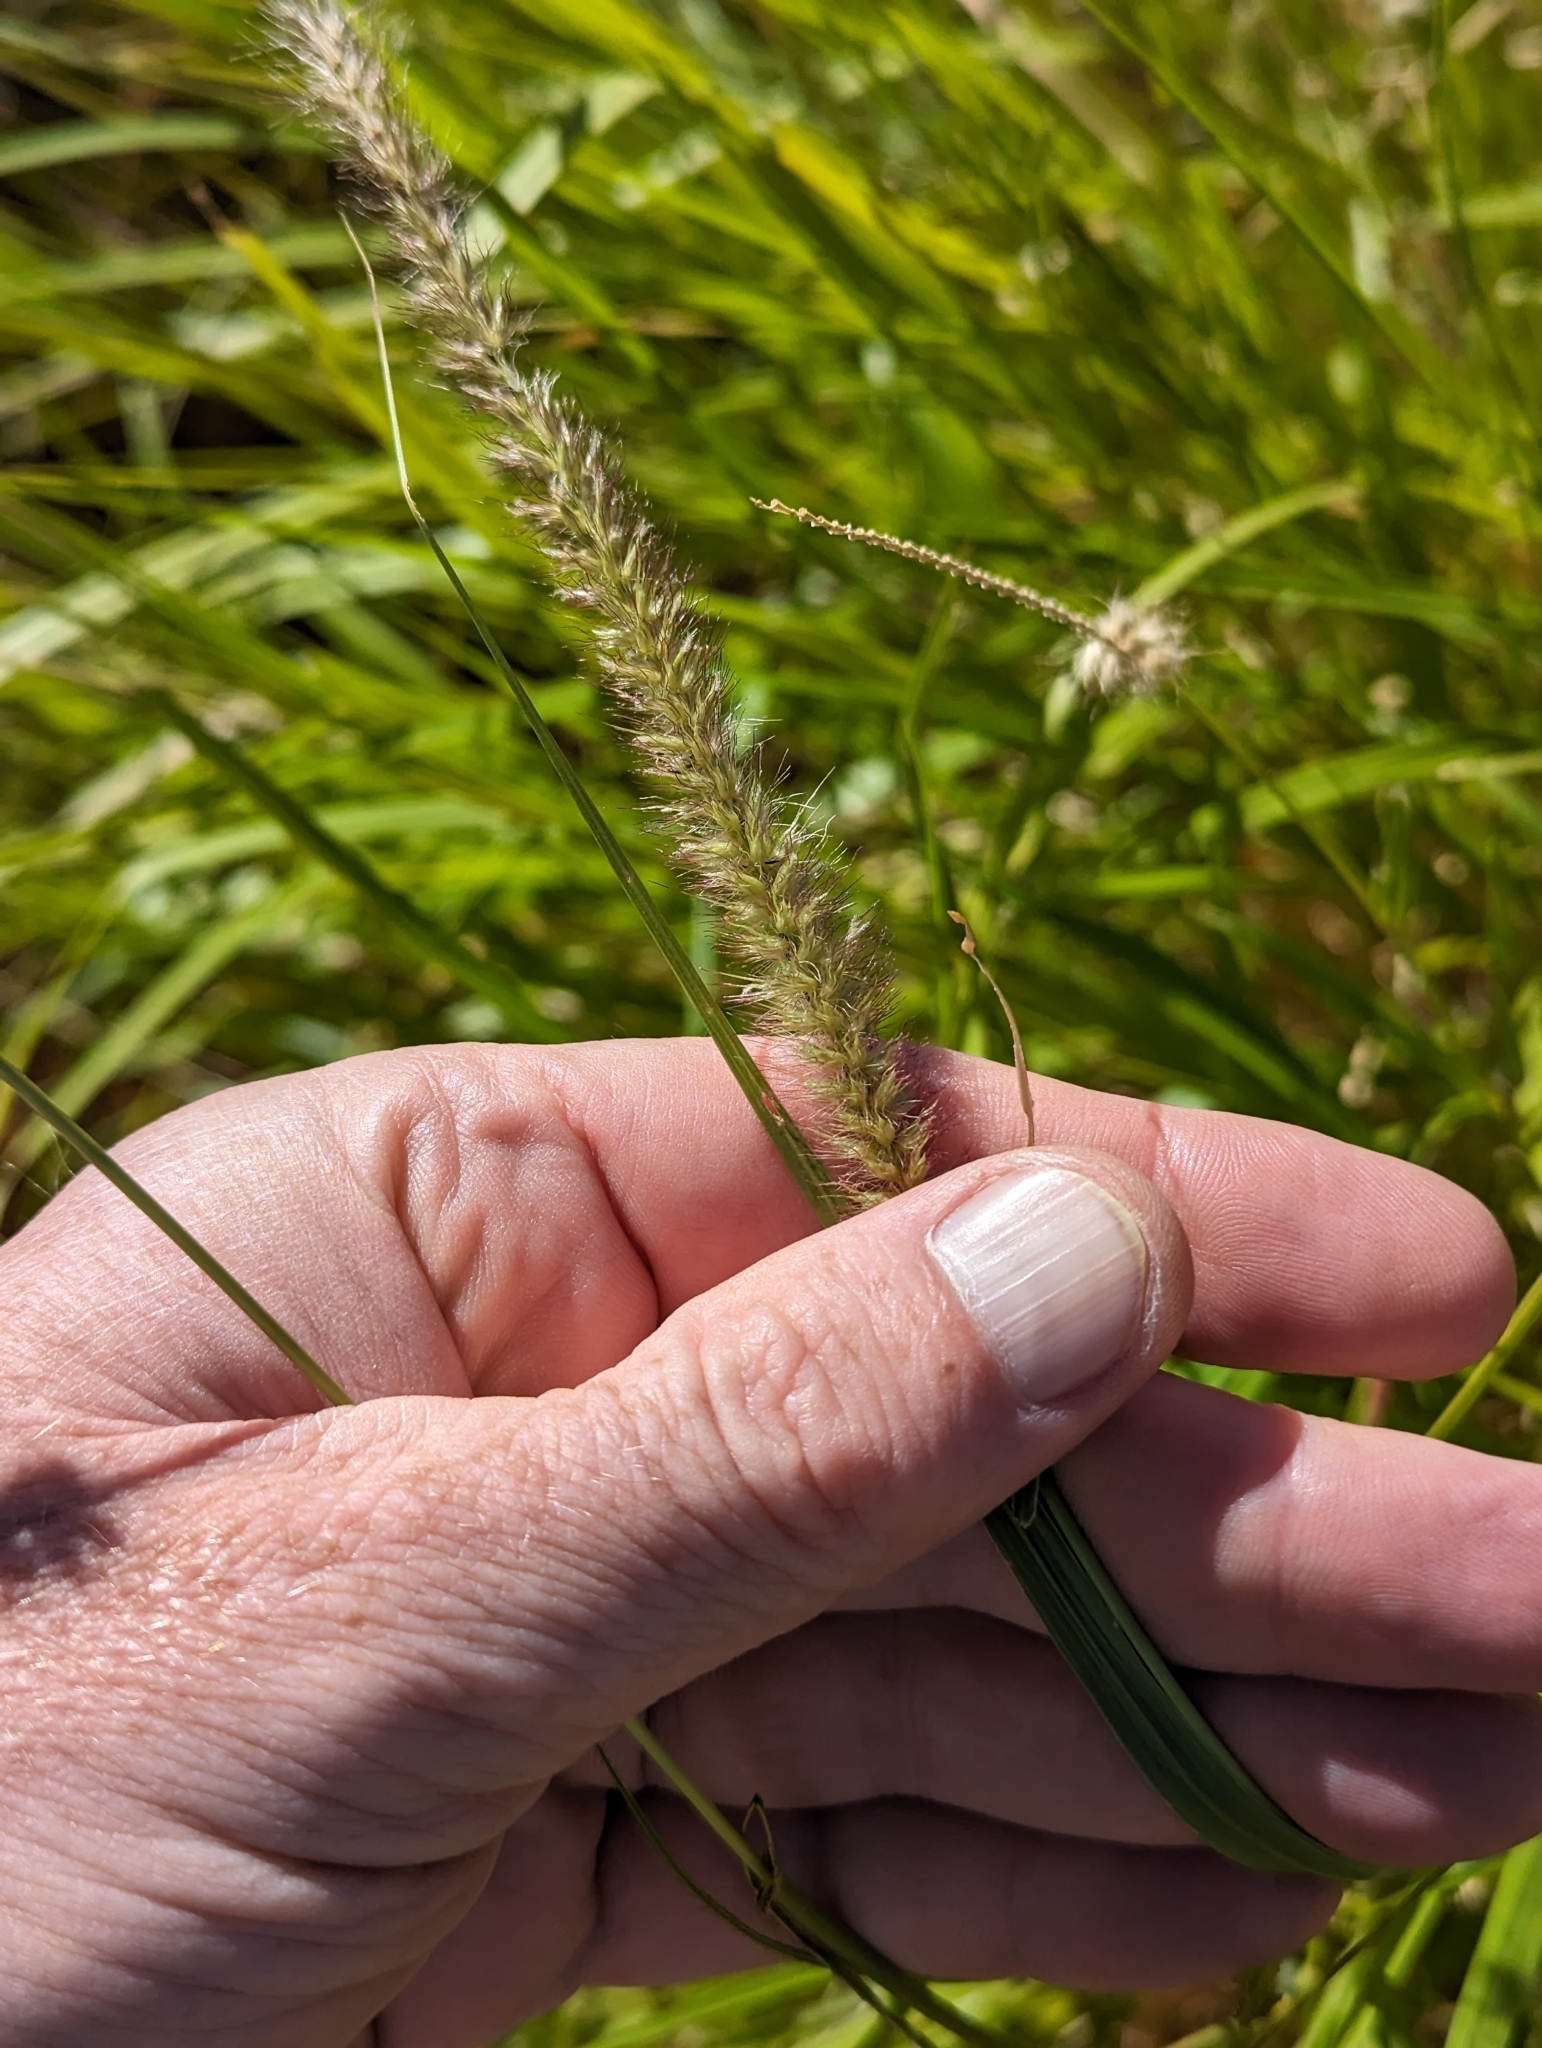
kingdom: Plantae
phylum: Tracheophyta
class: Liliopsida
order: Poales
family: Poaceae
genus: Cenchrus
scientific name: Cenchrus ciliaris
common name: Buffelgrass
